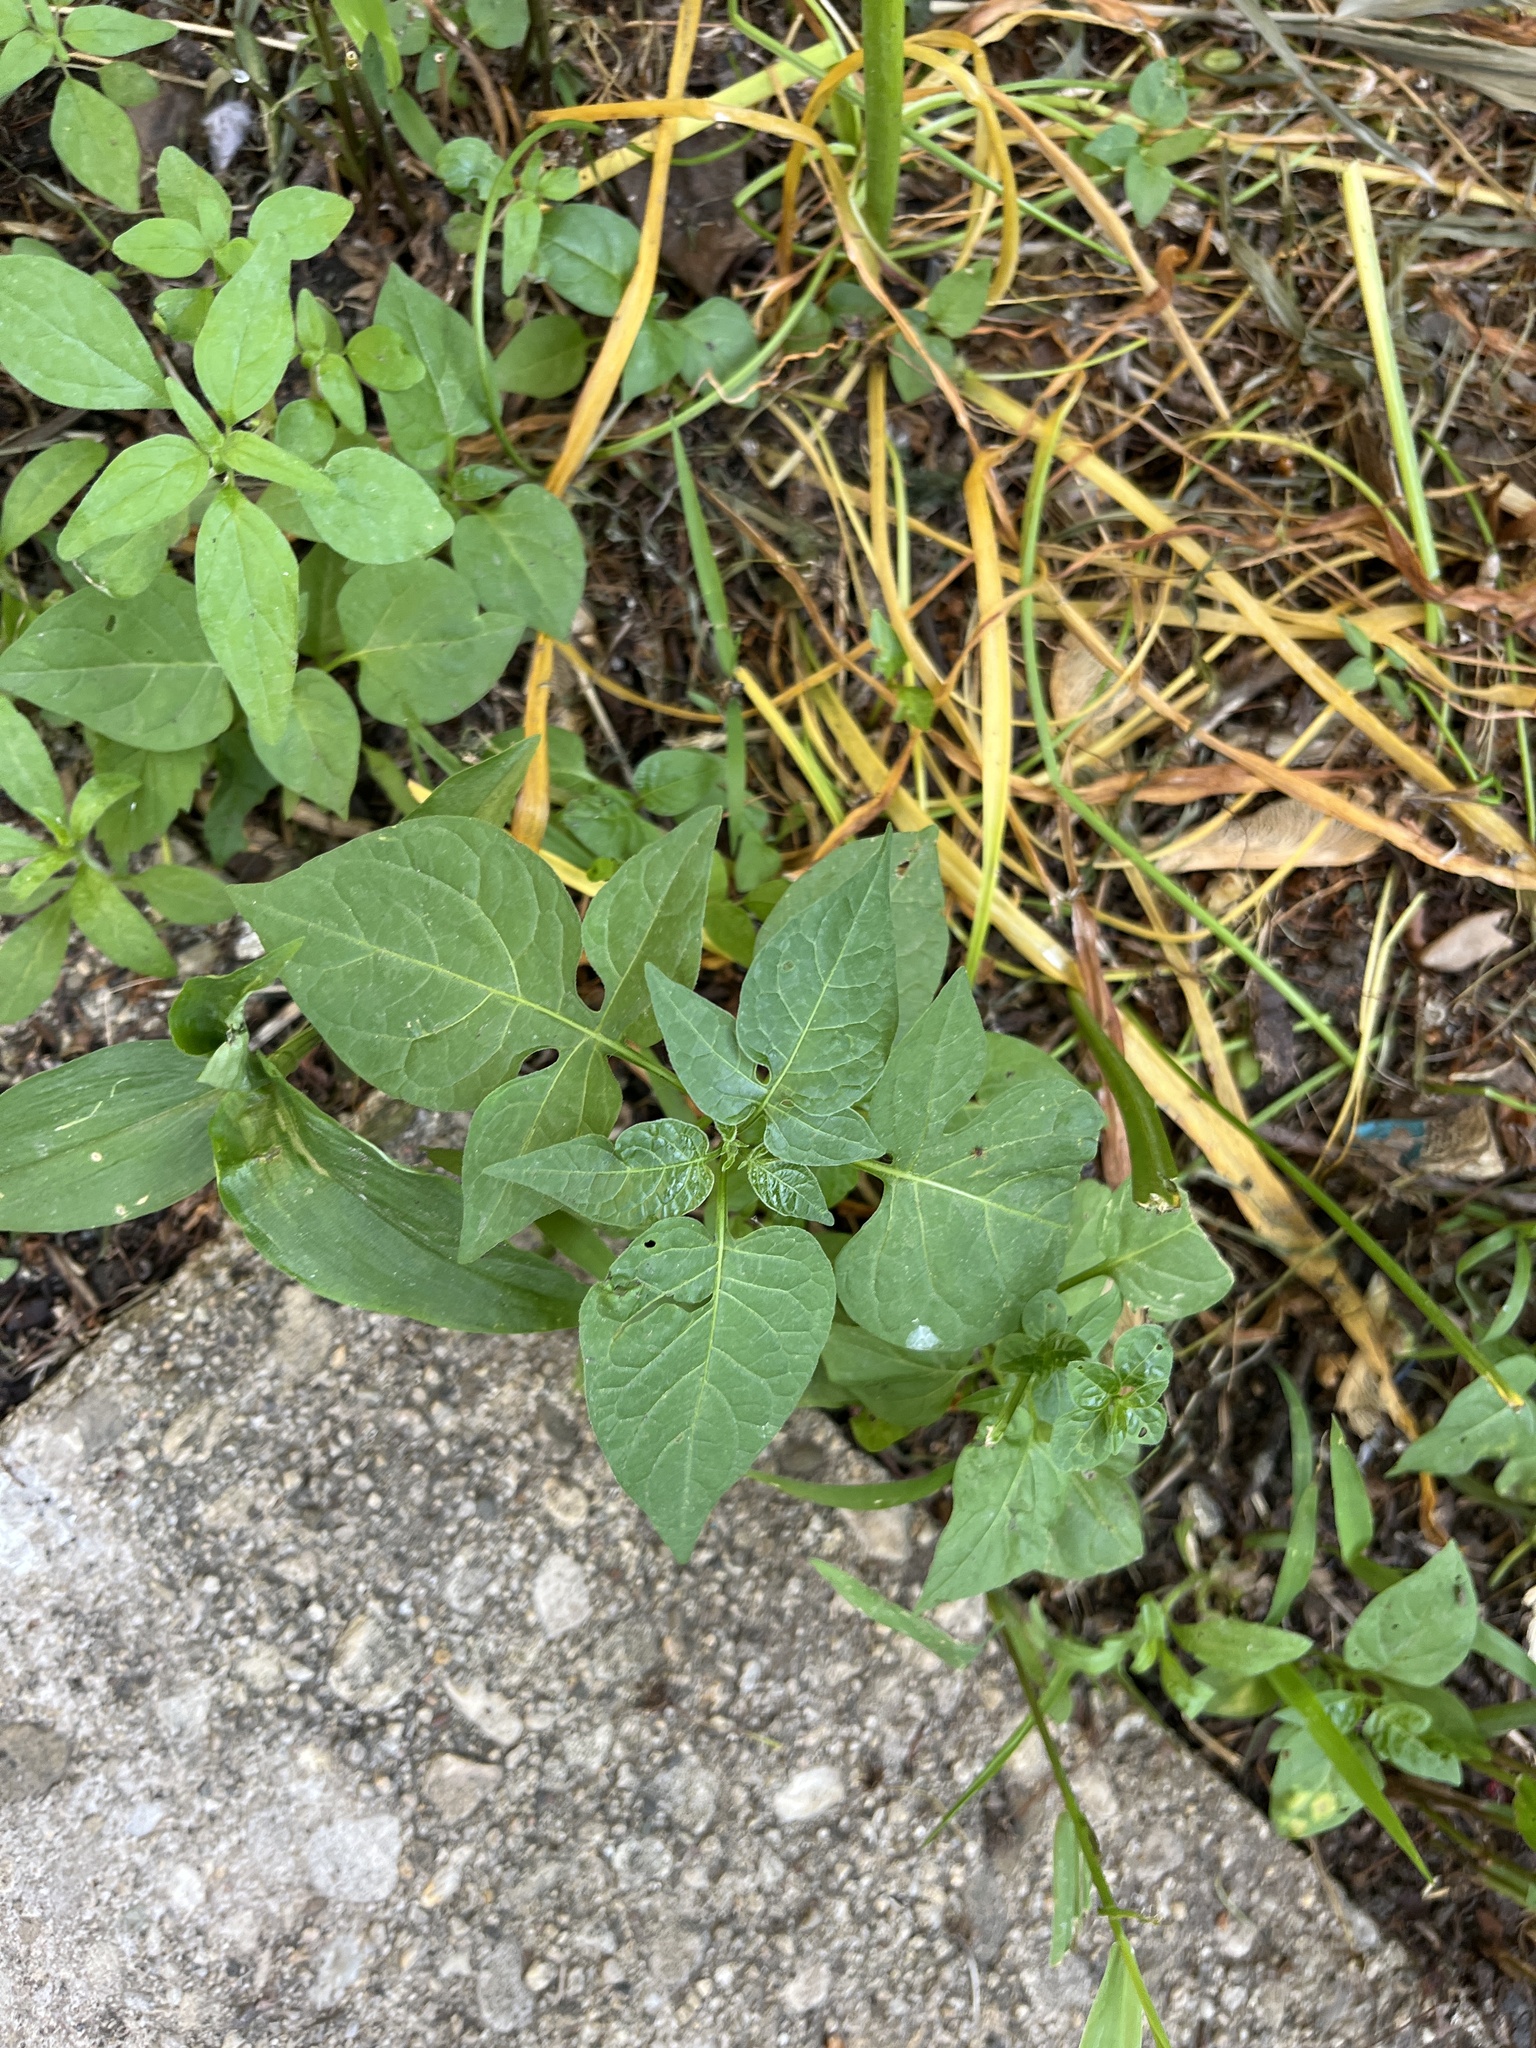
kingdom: Plantae
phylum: Tracheophyta
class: Magnoliopsida
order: Solanales
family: Solanaceae
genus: Solanum
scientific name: Solanum dulcamara
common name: Climbing nightshade
